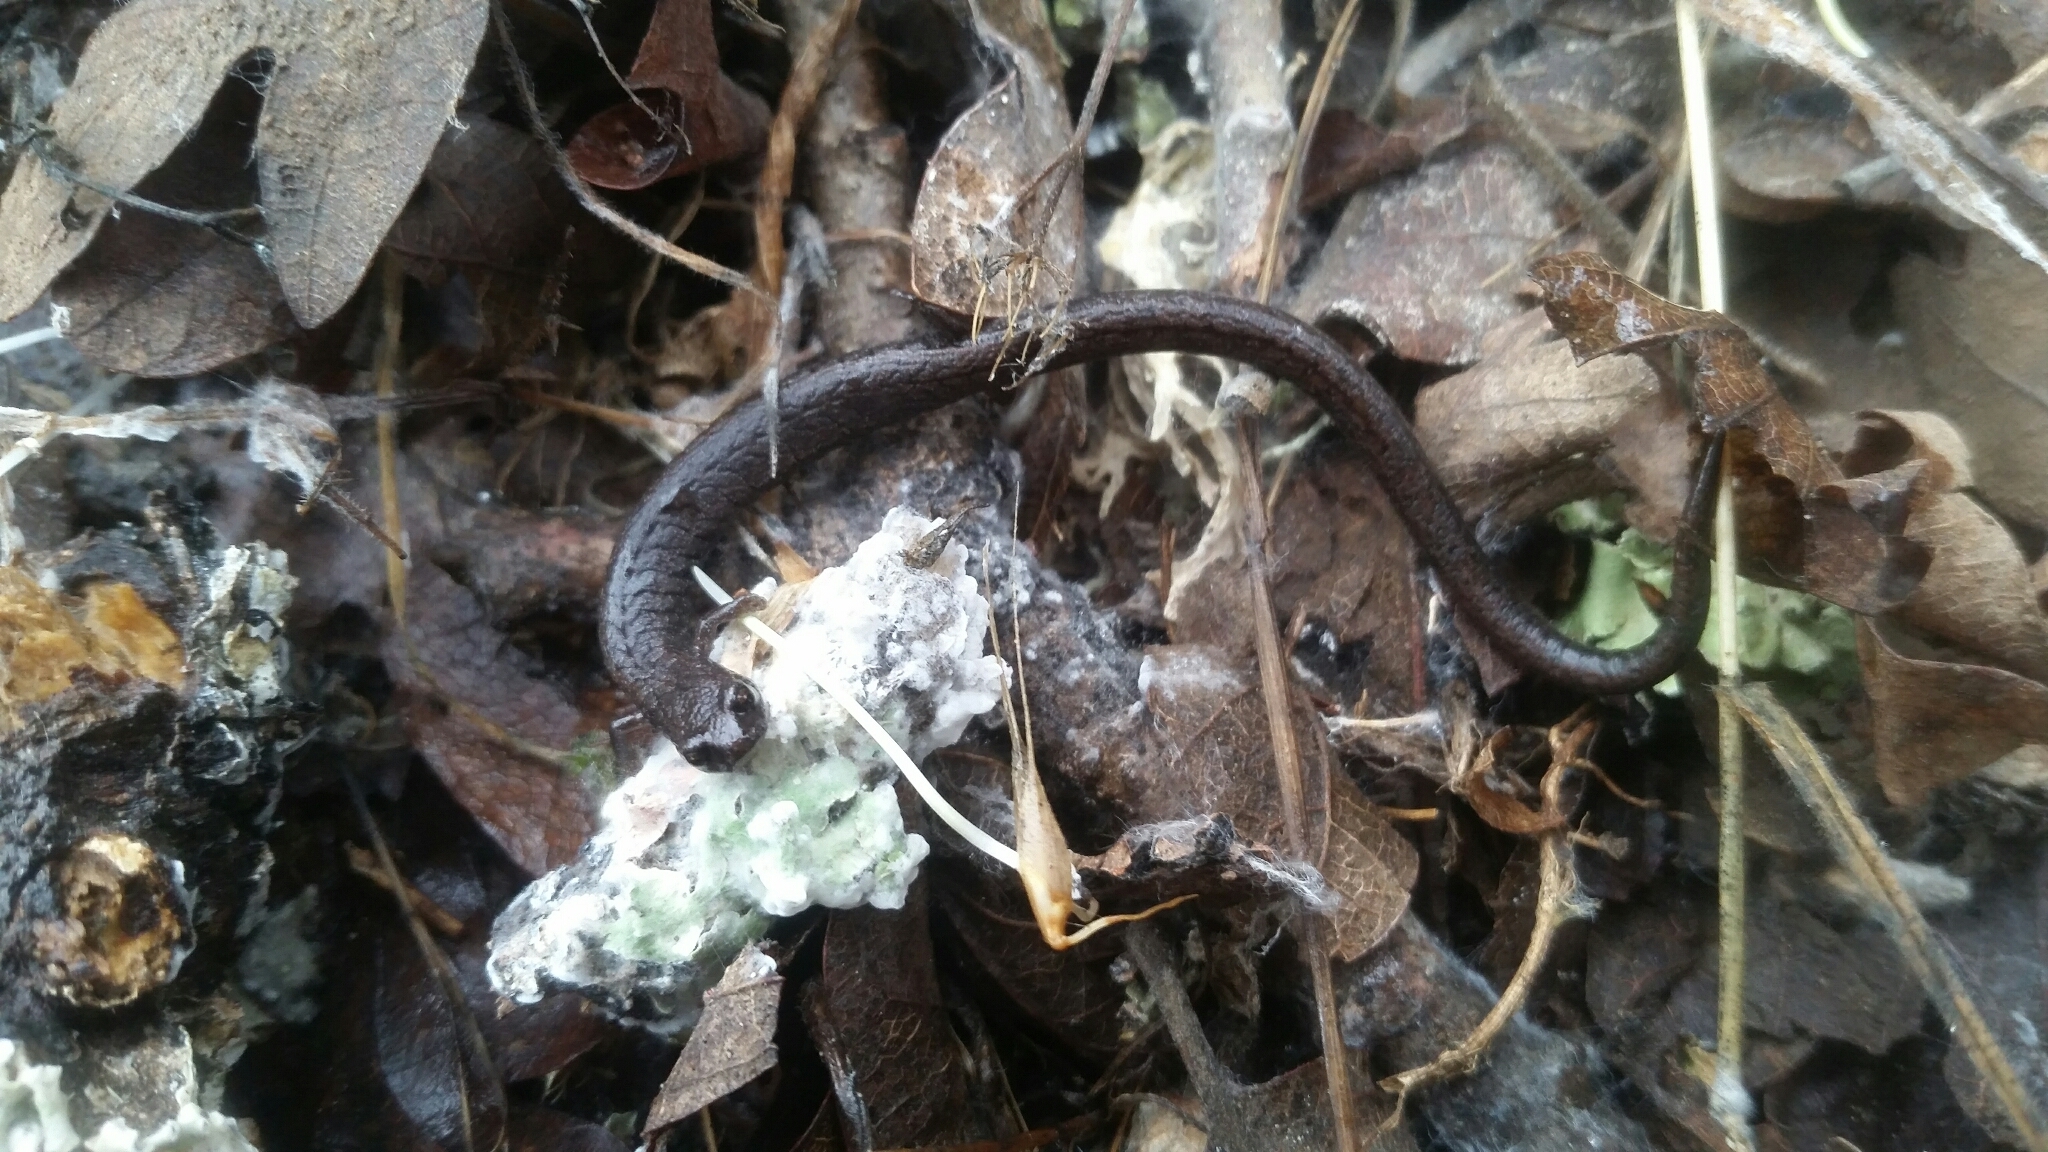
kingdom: Animalia
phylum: Chordata
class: Amphibia
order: Caudata
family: Plethodontidae
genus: Batrachoseps
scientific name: Batrachoseps attenuatus
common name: California slender salamander
